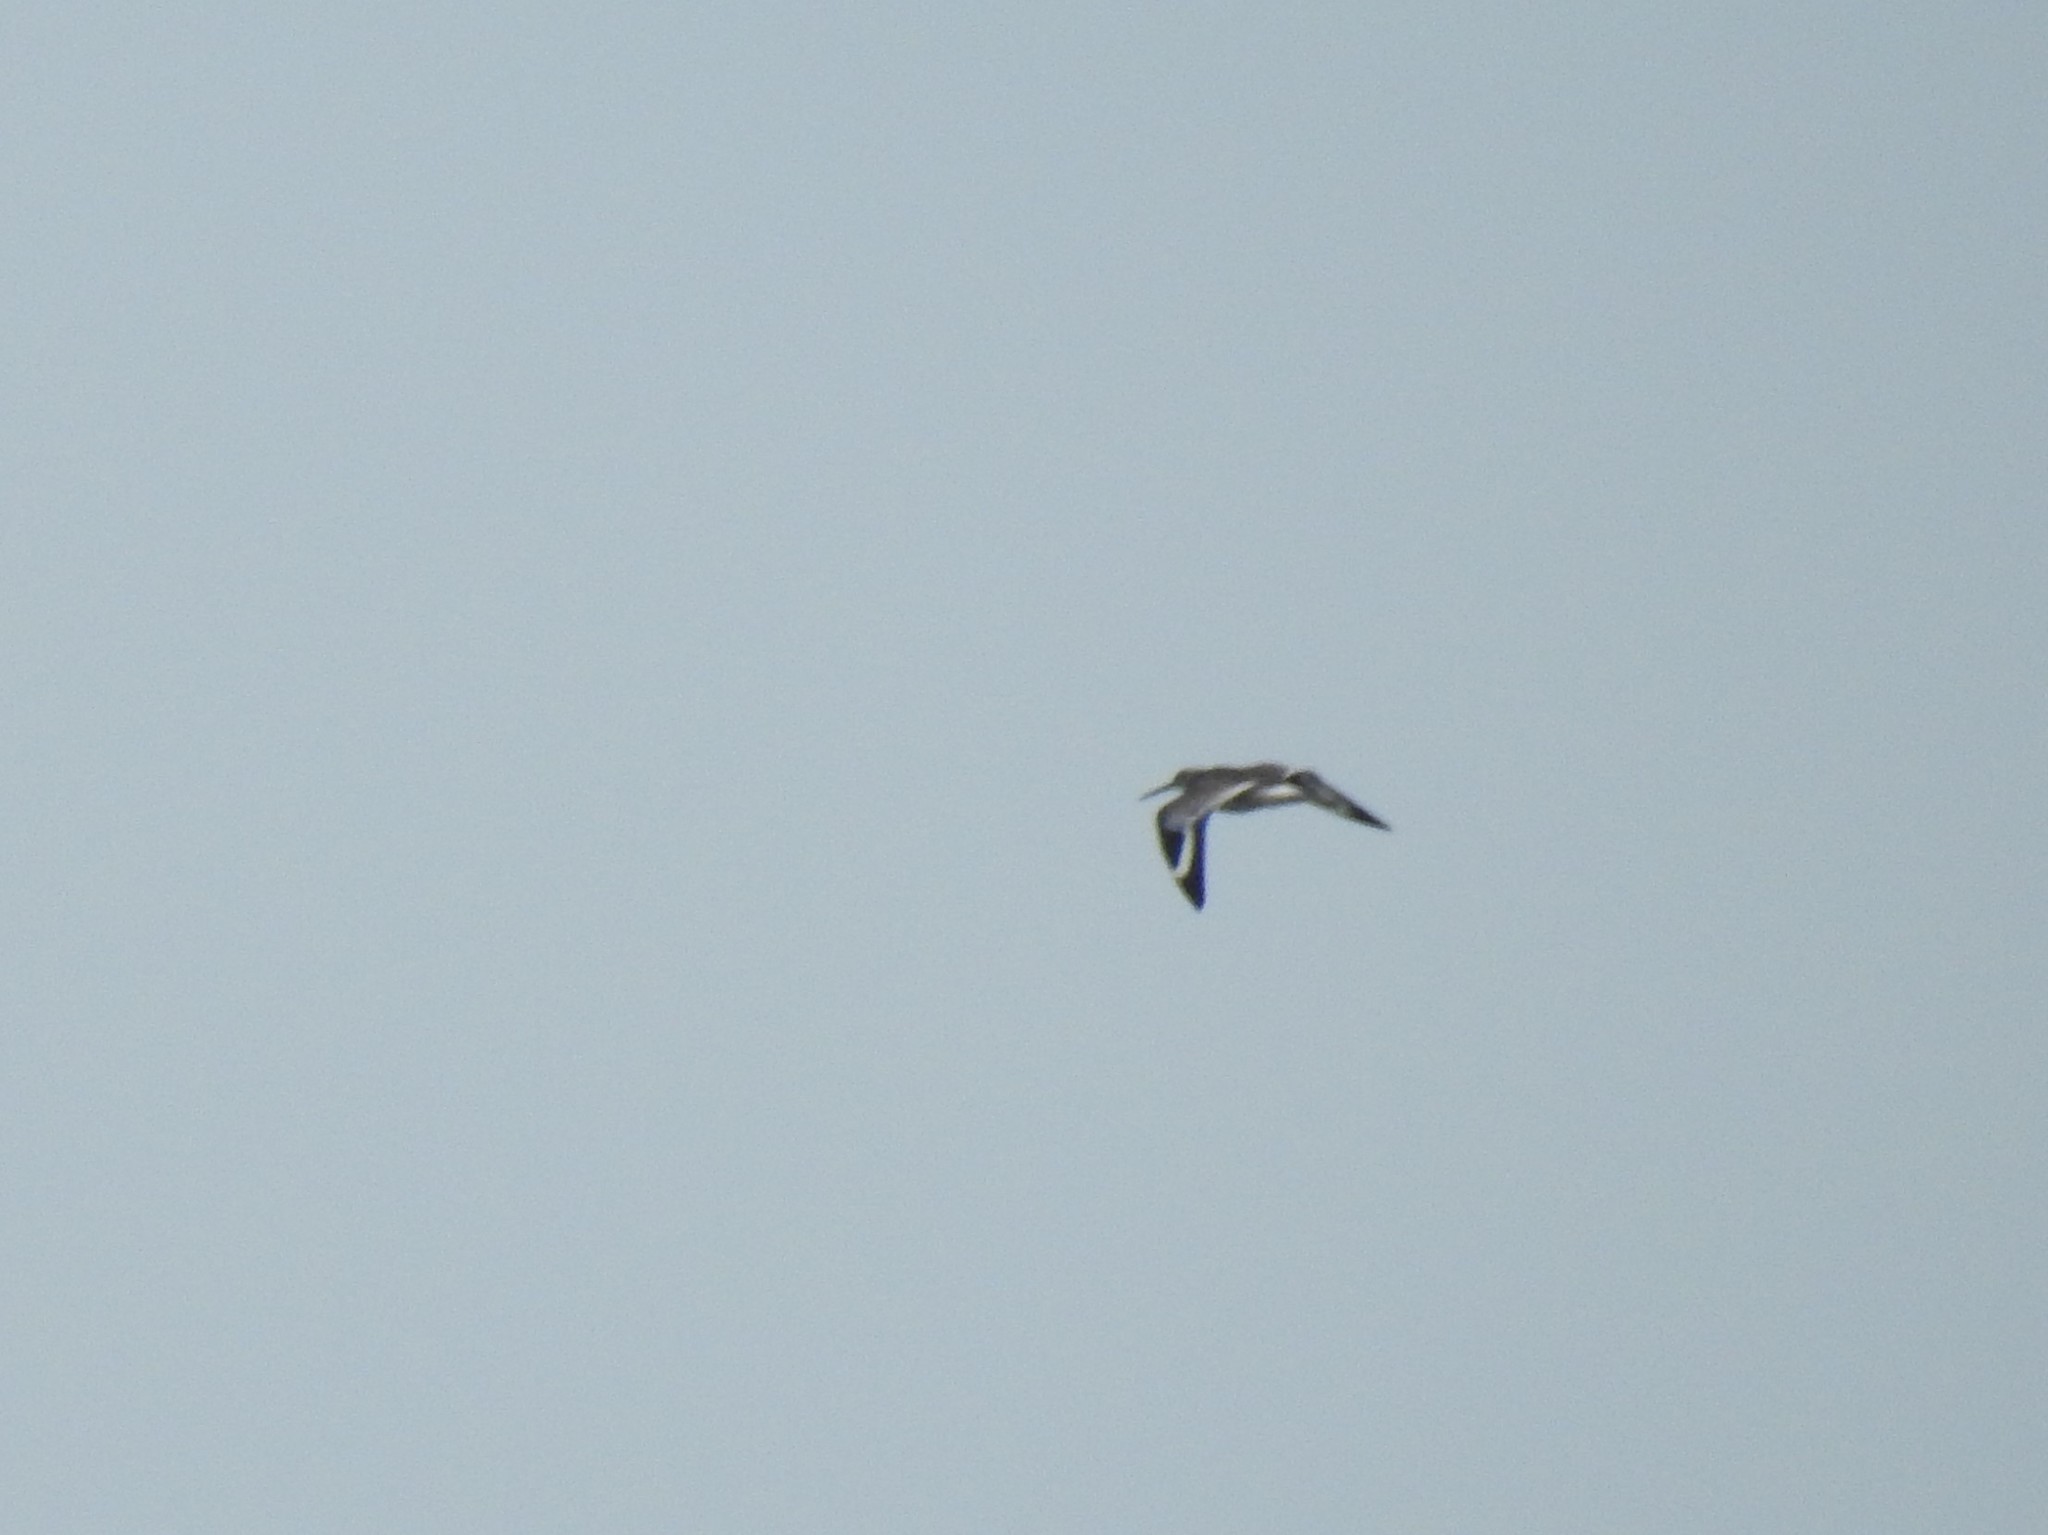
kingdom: Animalia
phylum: Chordata
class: Aves
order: Charadriiformes
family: Scolopacidae
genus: Tringa
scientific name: Tringa semipalmata
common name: Willet
